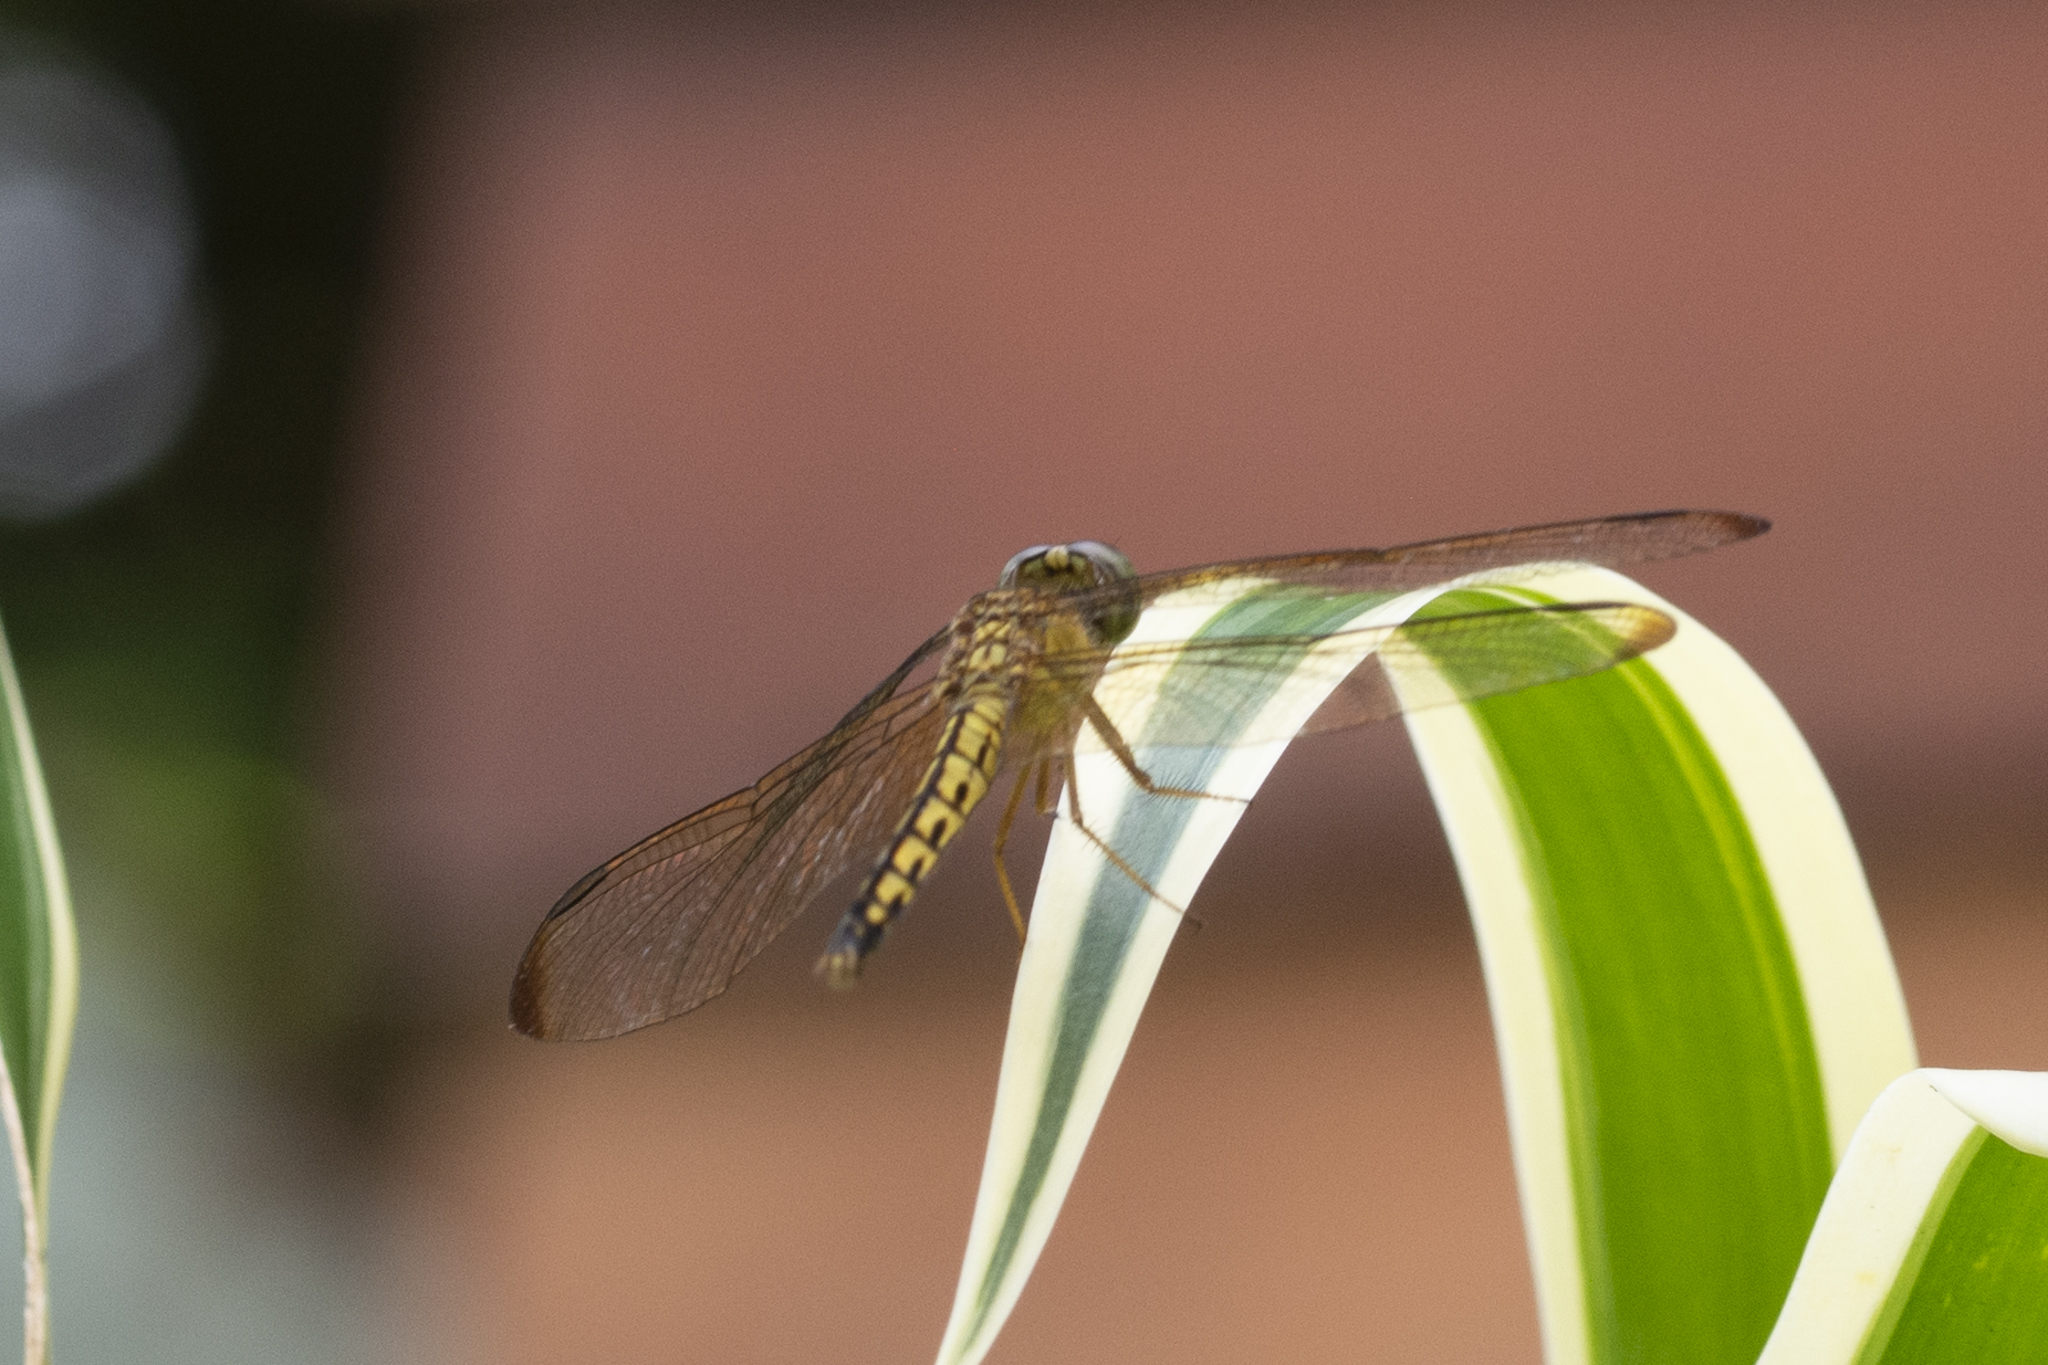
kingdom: Animalia
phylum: Arthropoda
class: Insecta
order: Odonata
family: Libellulidae
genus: Neurothemis
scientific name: Neurothemis terminata
